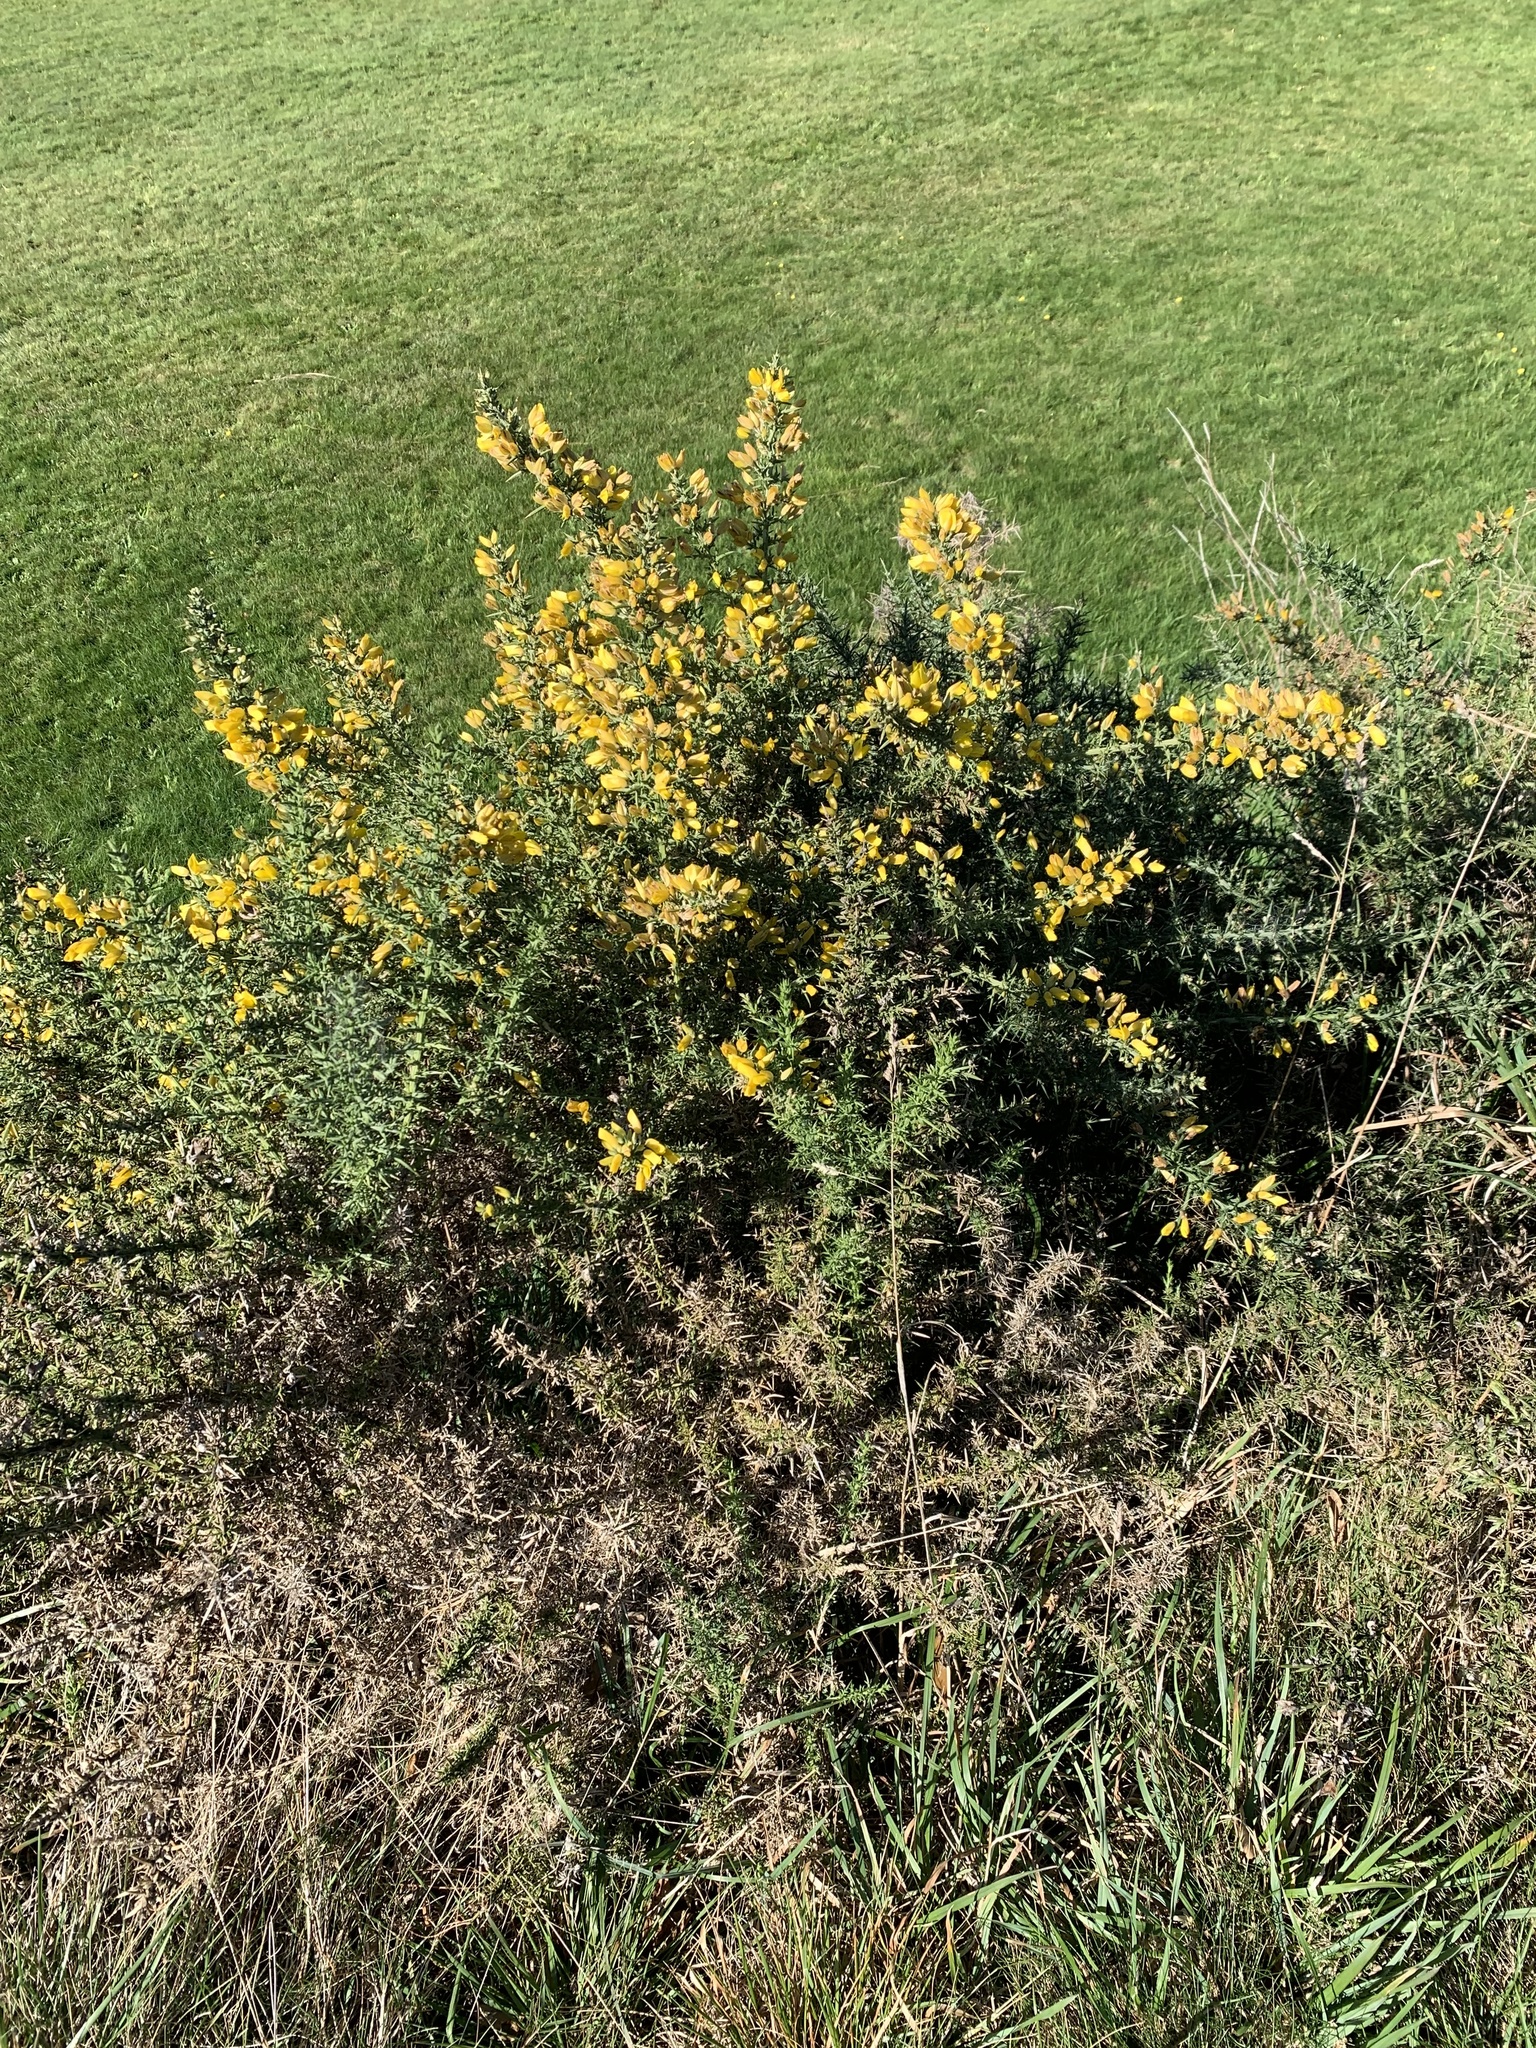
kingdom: Plantae
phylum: Tracheophyta
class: Magnoliopsida
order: Fabales
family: Fabaceae
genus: Ulex
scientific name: Ulex europaeus
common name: Common gorse
